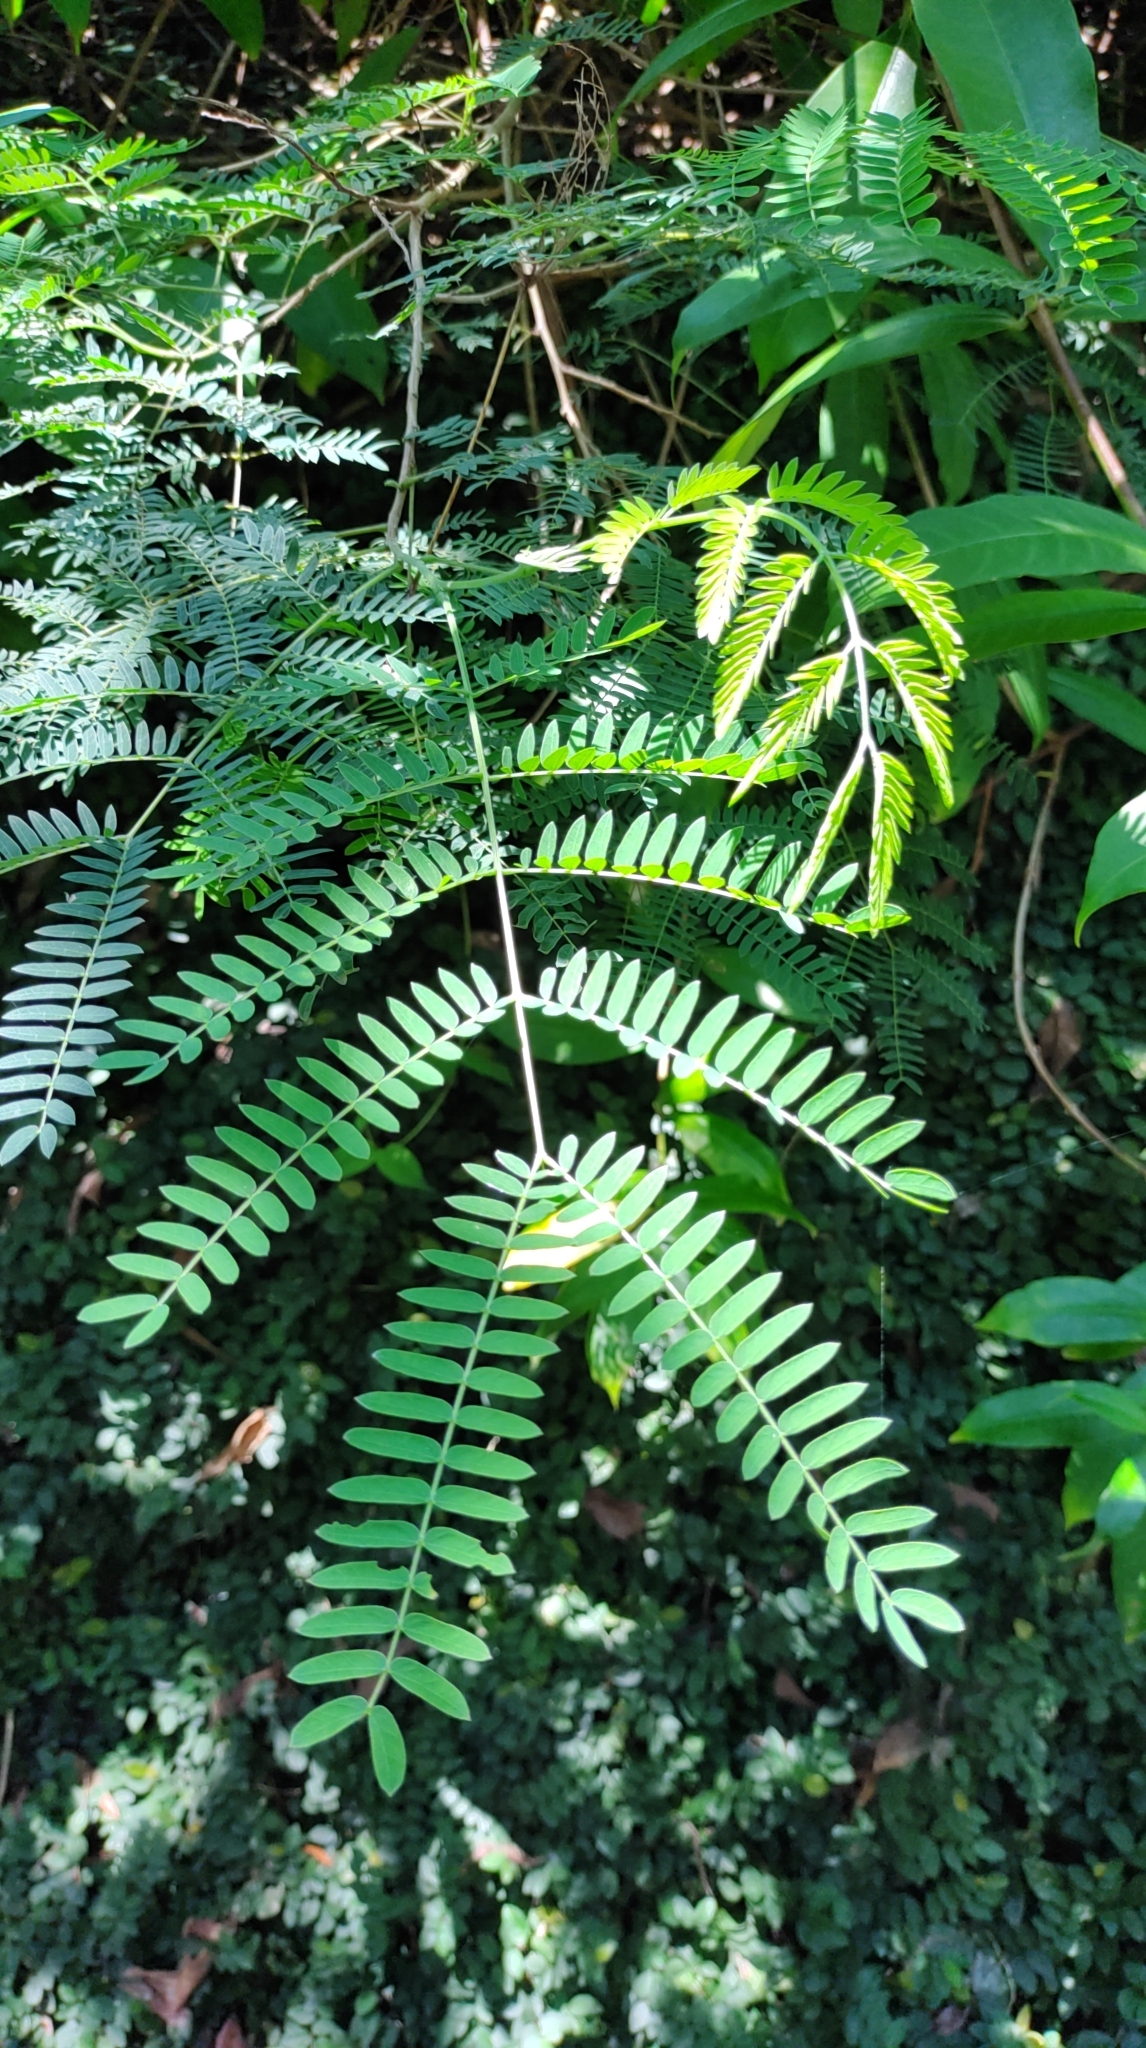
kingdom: Plantae
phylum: Tracheophyta
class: Magnoliopsida
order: Fabales
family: Fabaceae
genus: Leucaena
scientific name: Leucaena leucocephala
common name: White leadtree
